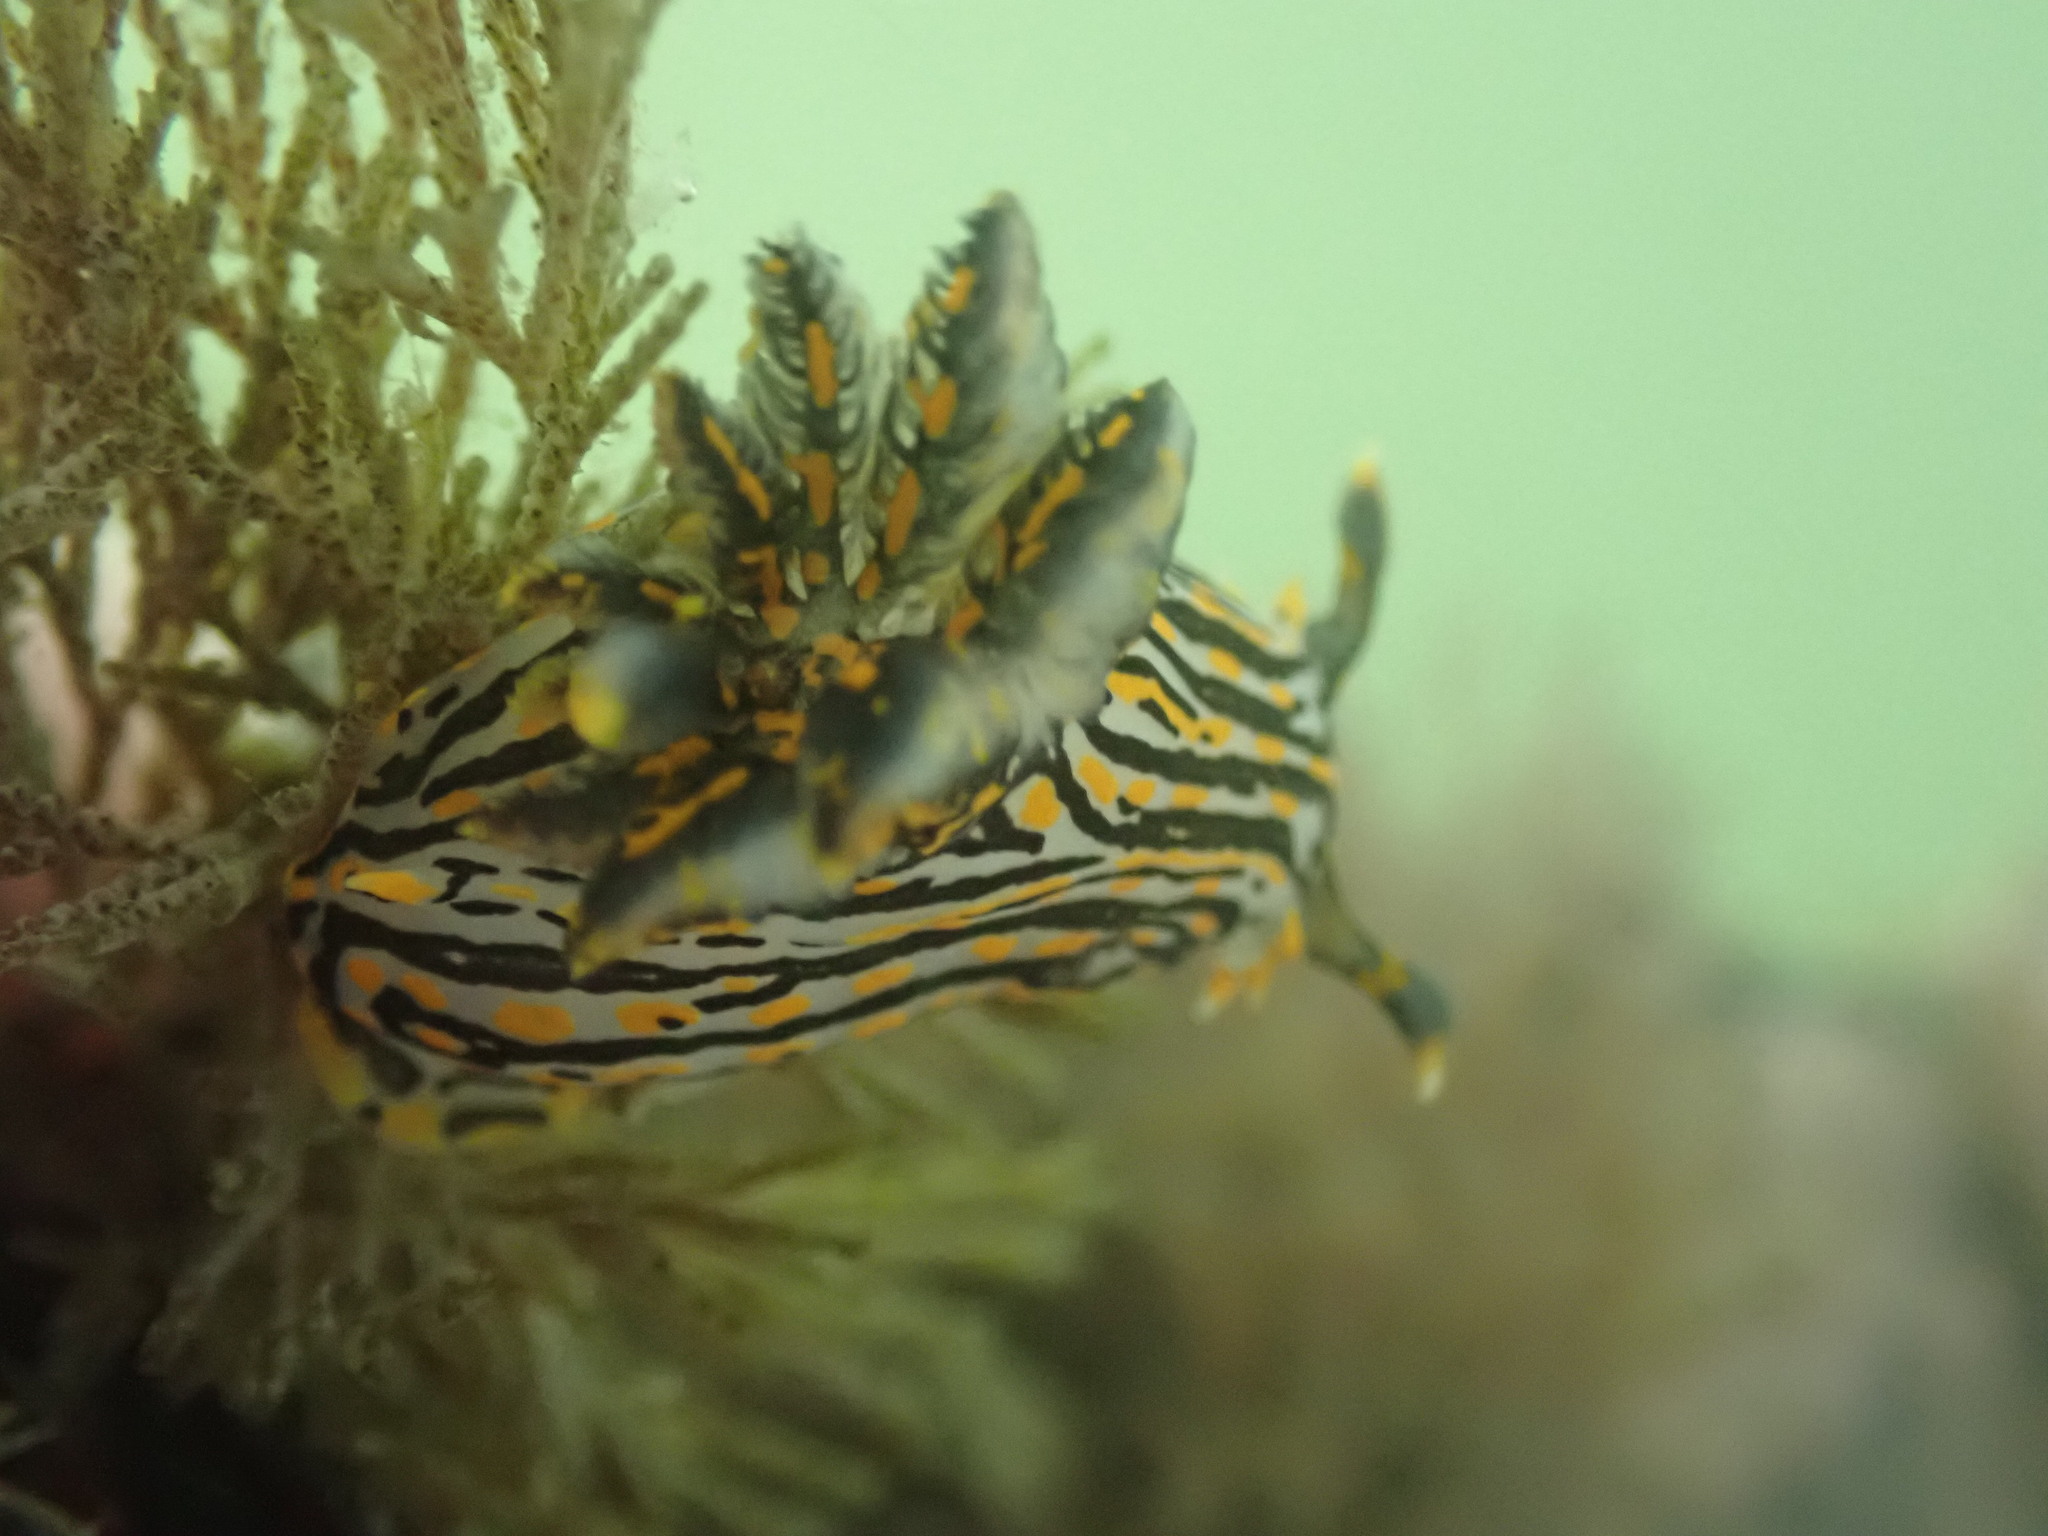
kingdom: Animalia
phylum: Mollusca
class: Gastropoda
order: Nudibranchia
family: Polyceridae
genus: Polycera
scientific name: Polycera atra
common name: Orange-spike polycera
